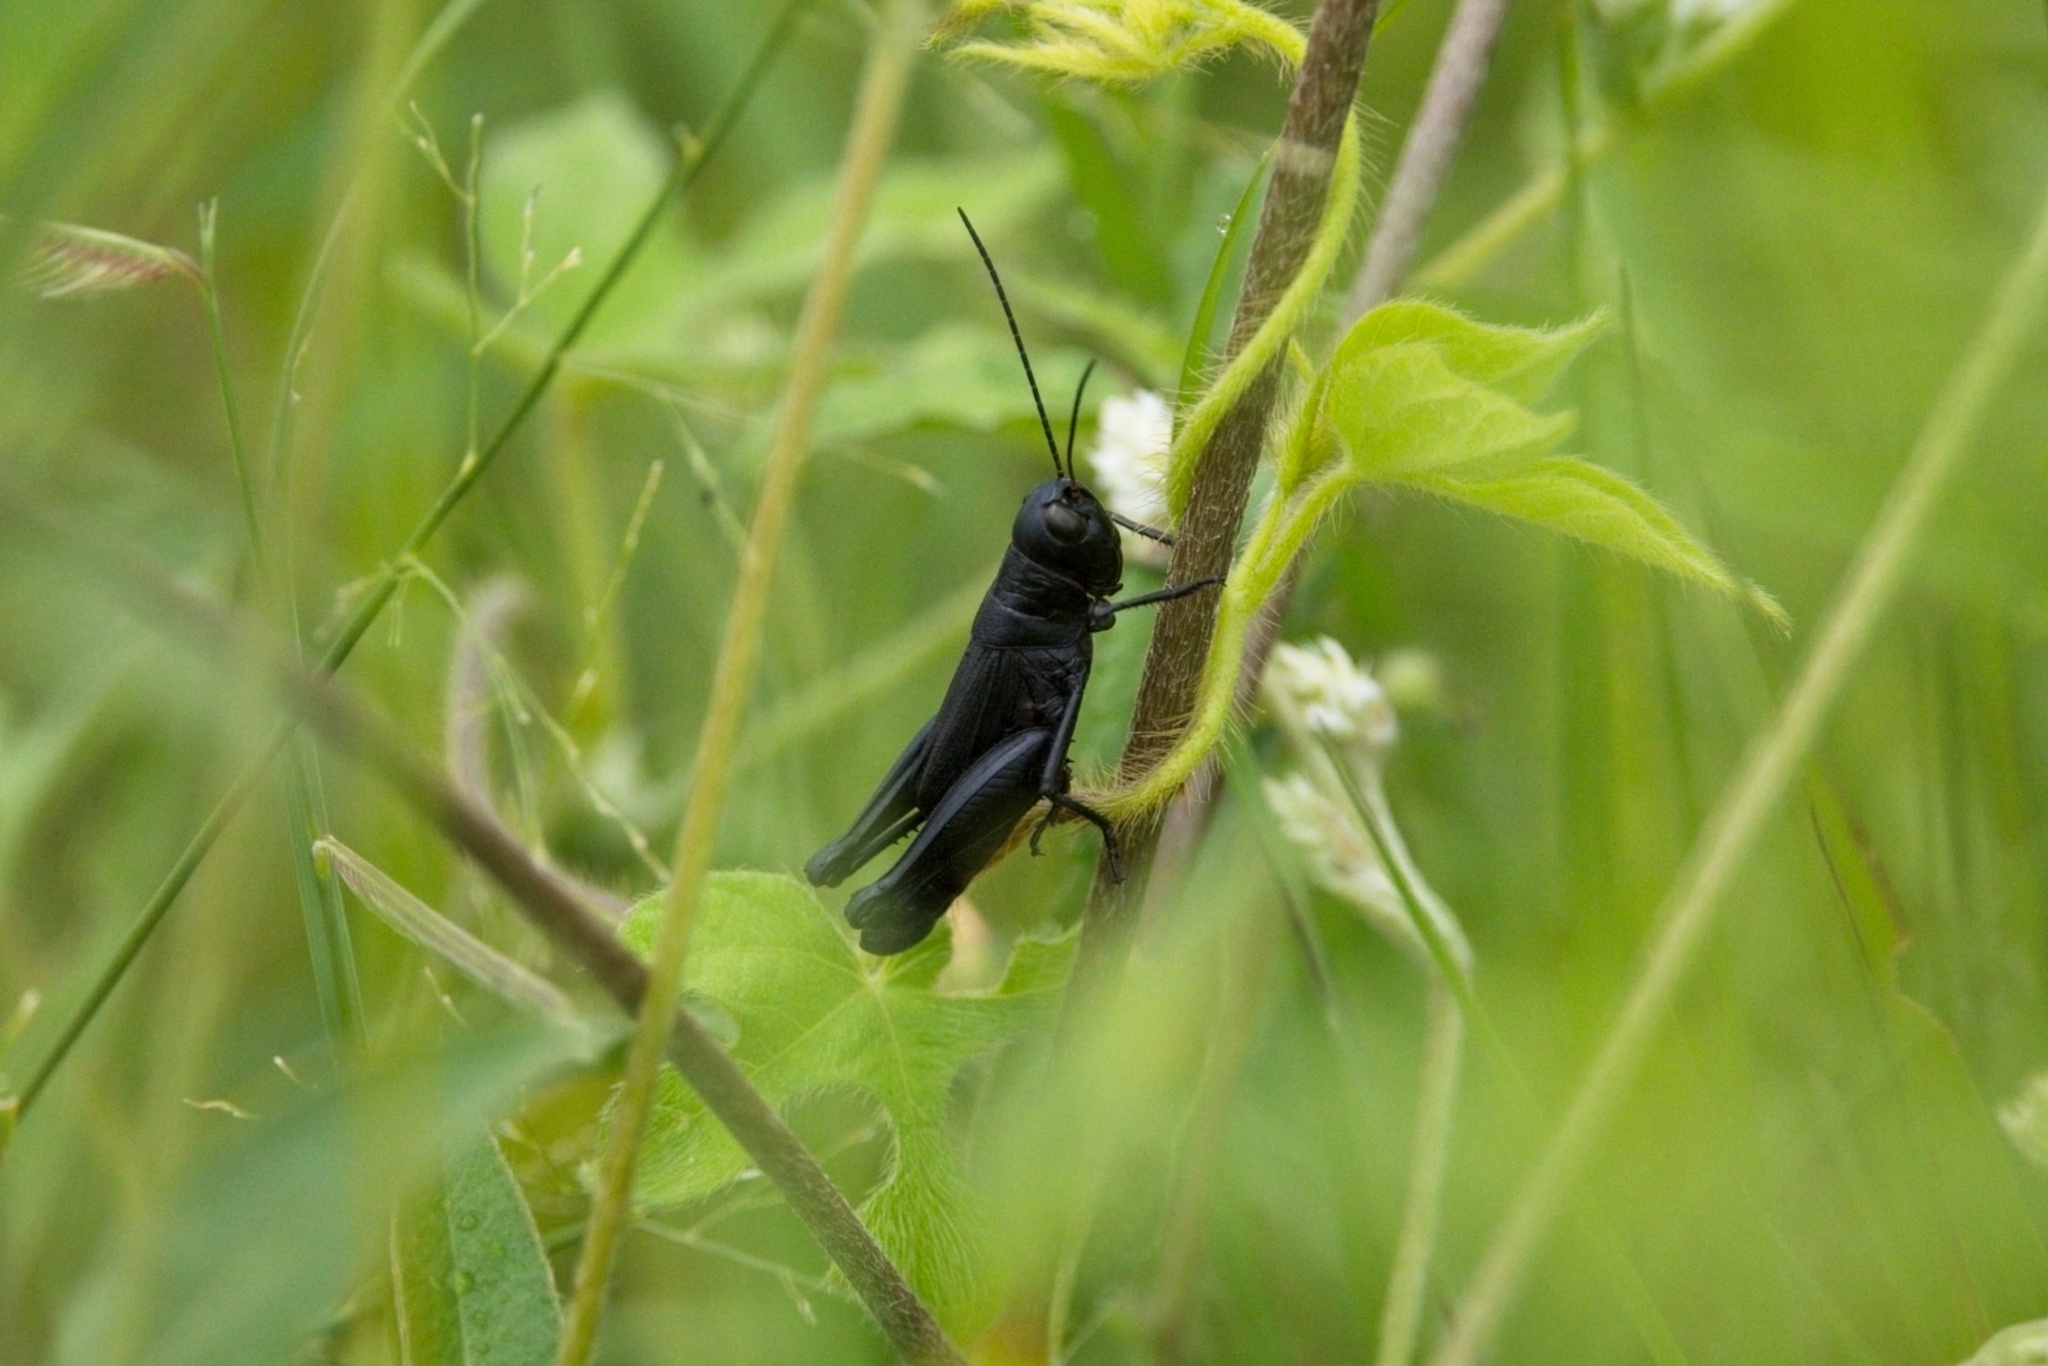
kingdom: Animalia
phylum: Arthropoda
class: Insecta
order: Orthoptera
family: Acrididae
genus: Boopedon
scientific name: Boopedon nubilum
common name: Ebony grasshopper
